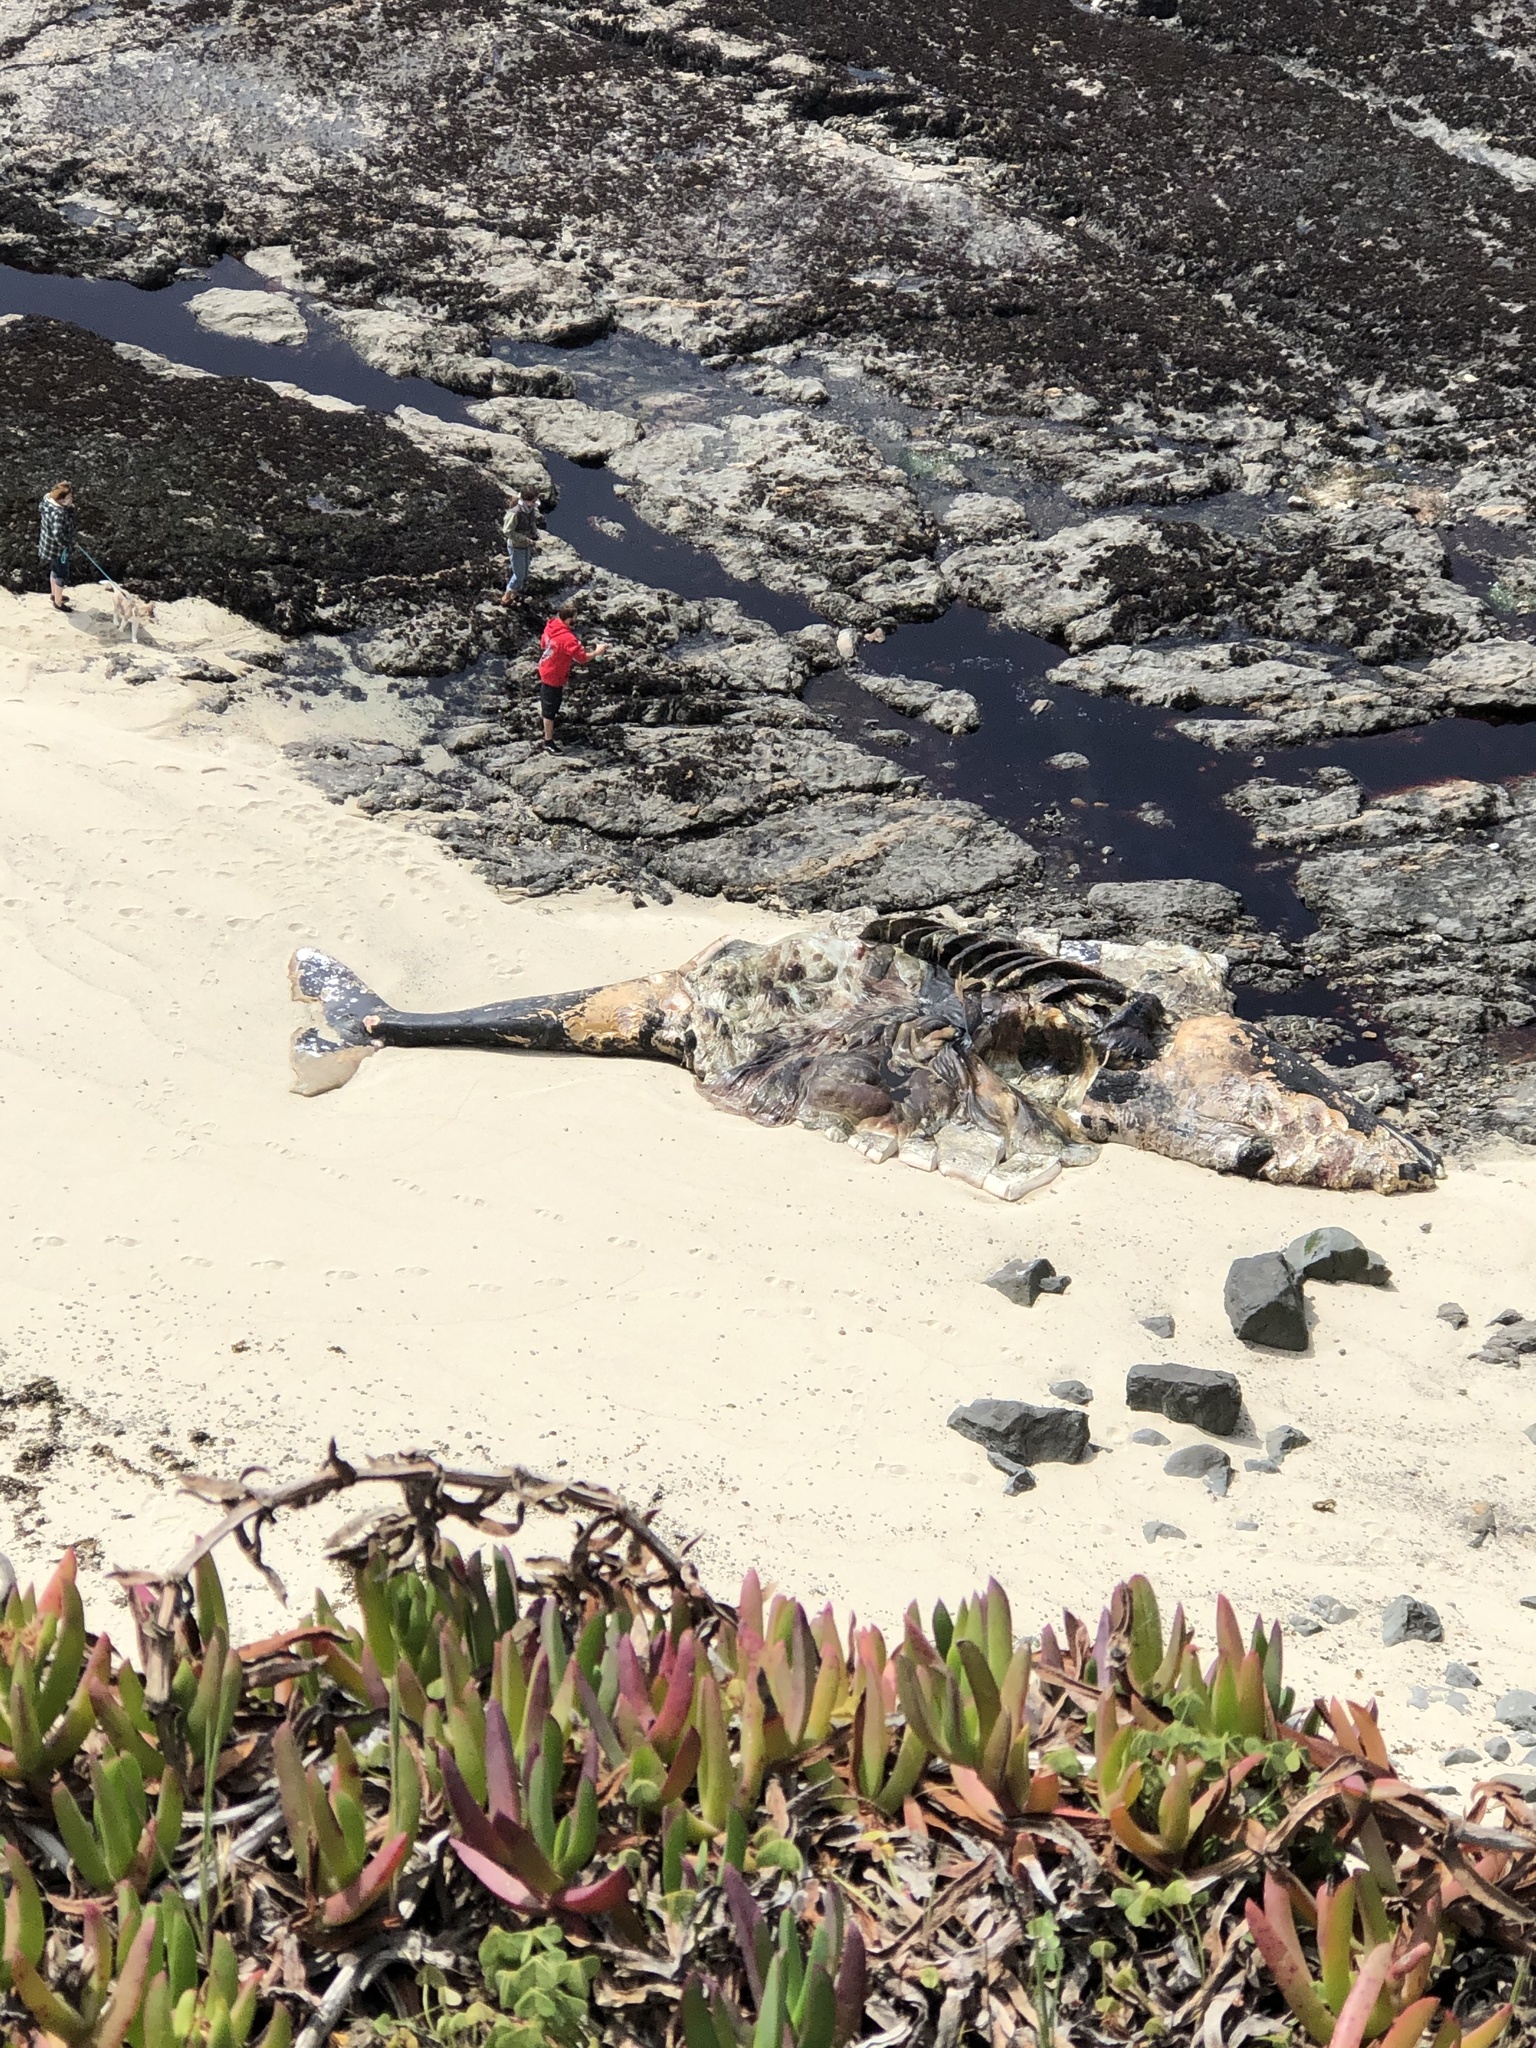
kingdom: Animalia
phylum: Chordata
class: Mammalia
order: Cetacea
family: Eschrichtiidae
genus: Eschrichtius
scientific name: Eschrichtius robustus
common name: Gray whale
